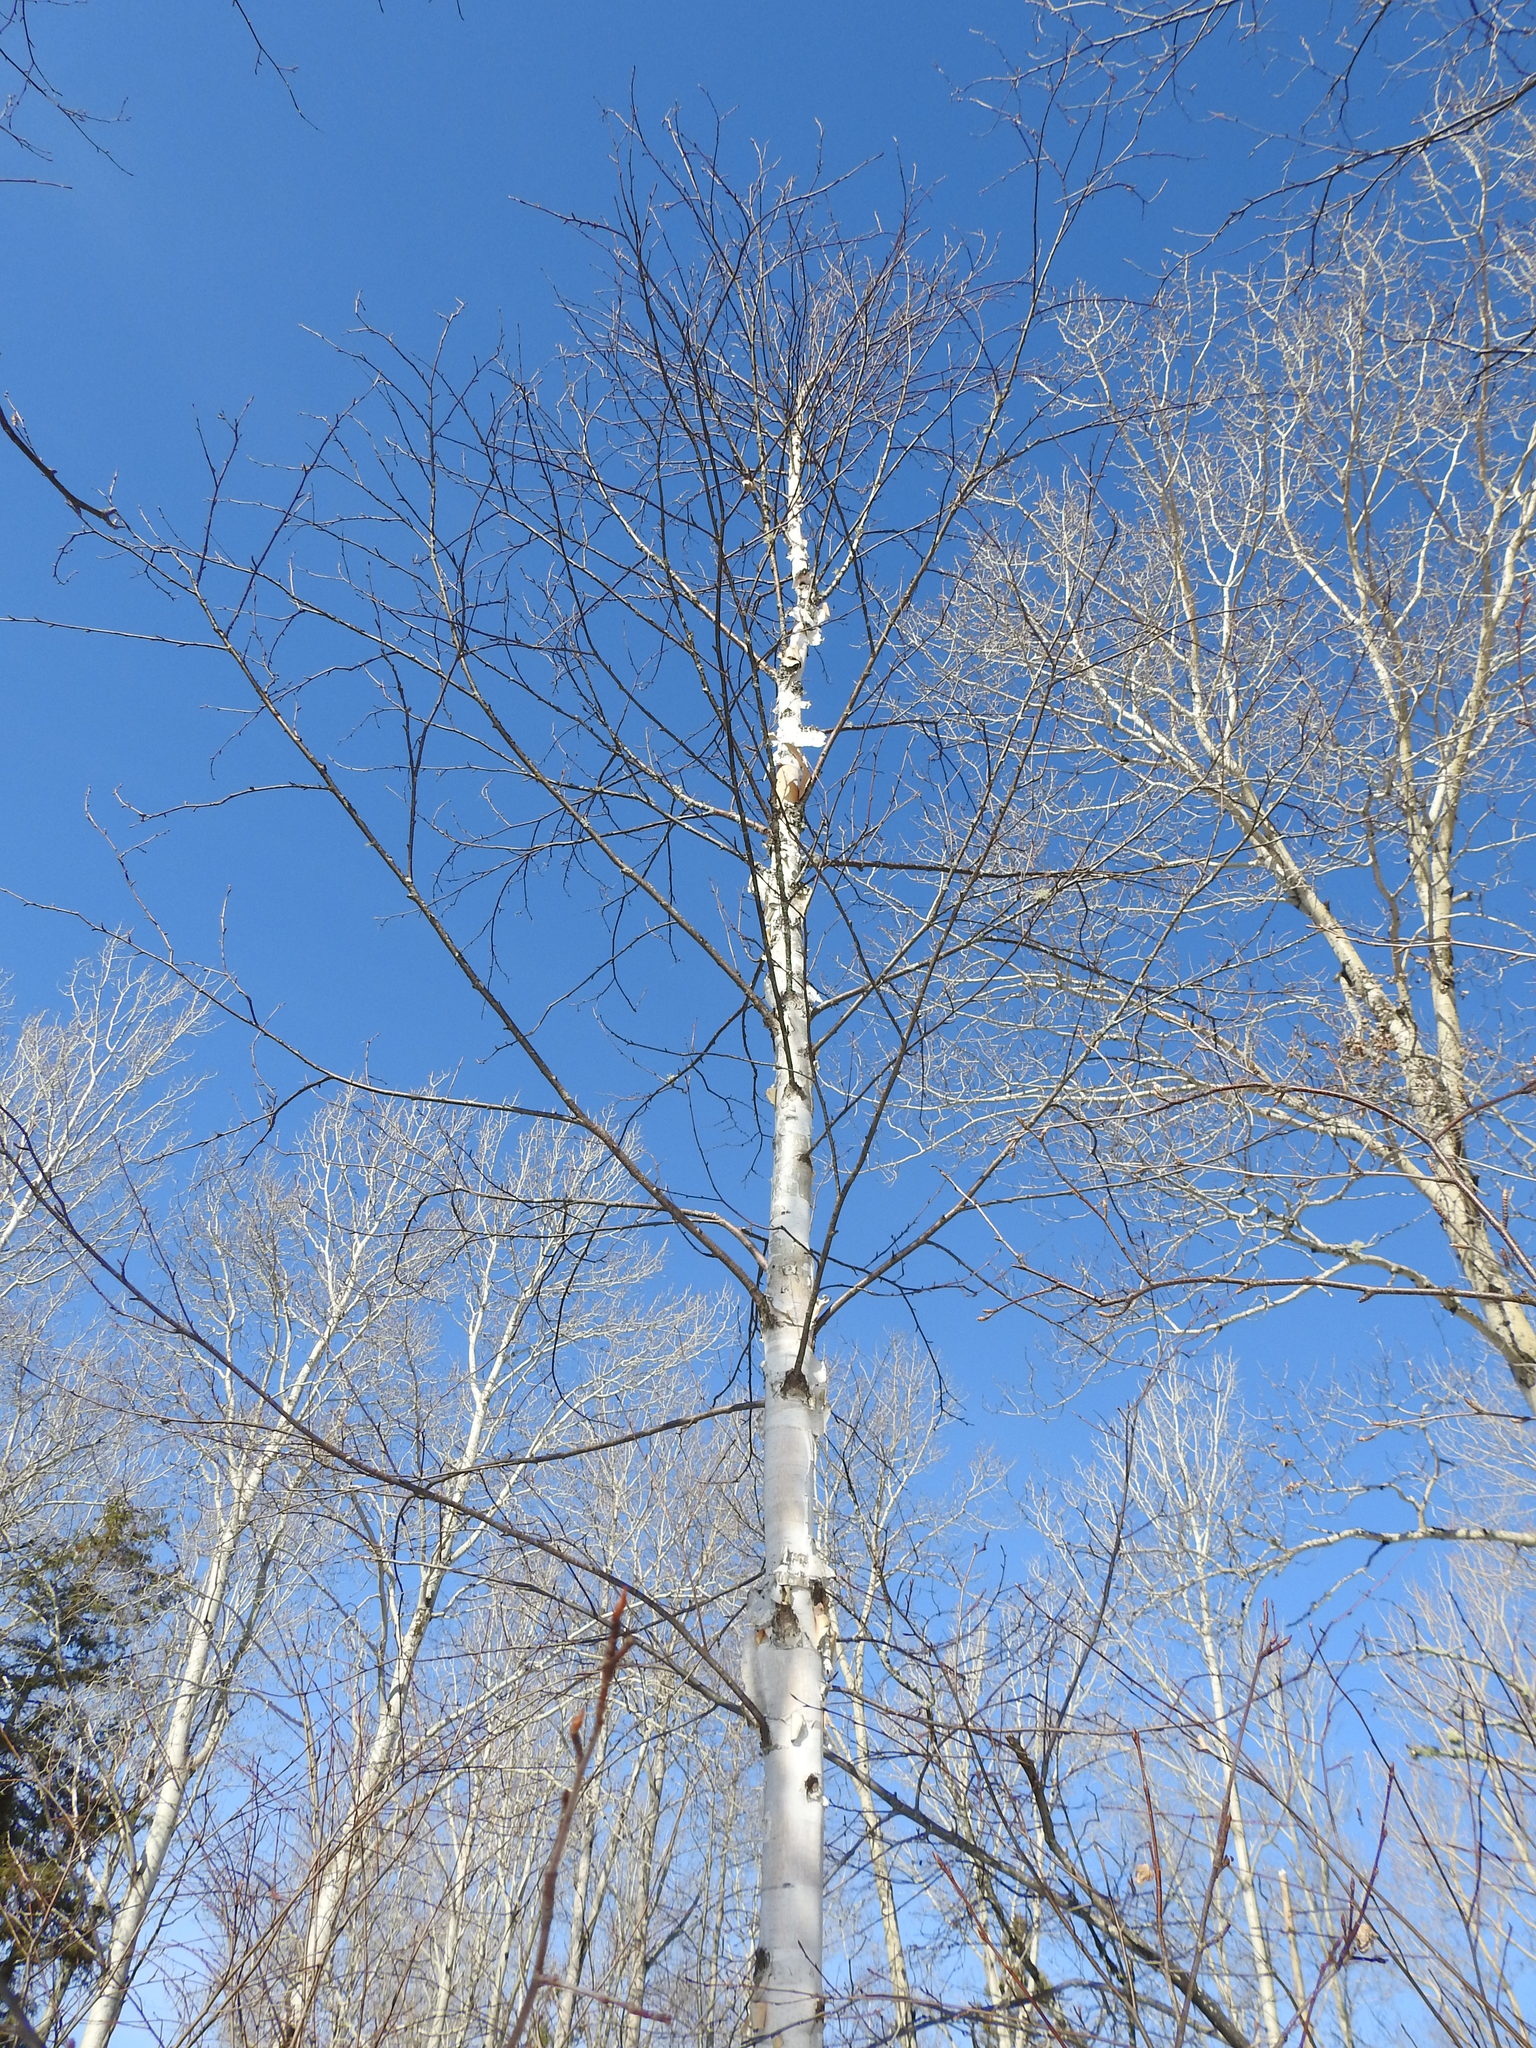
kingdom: Plantae
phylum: Tracheophyta
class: Magnoliopsida
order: Fagales
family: Betulaceae
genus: Betula
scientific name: Betula papyrifera
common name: Paper birch
